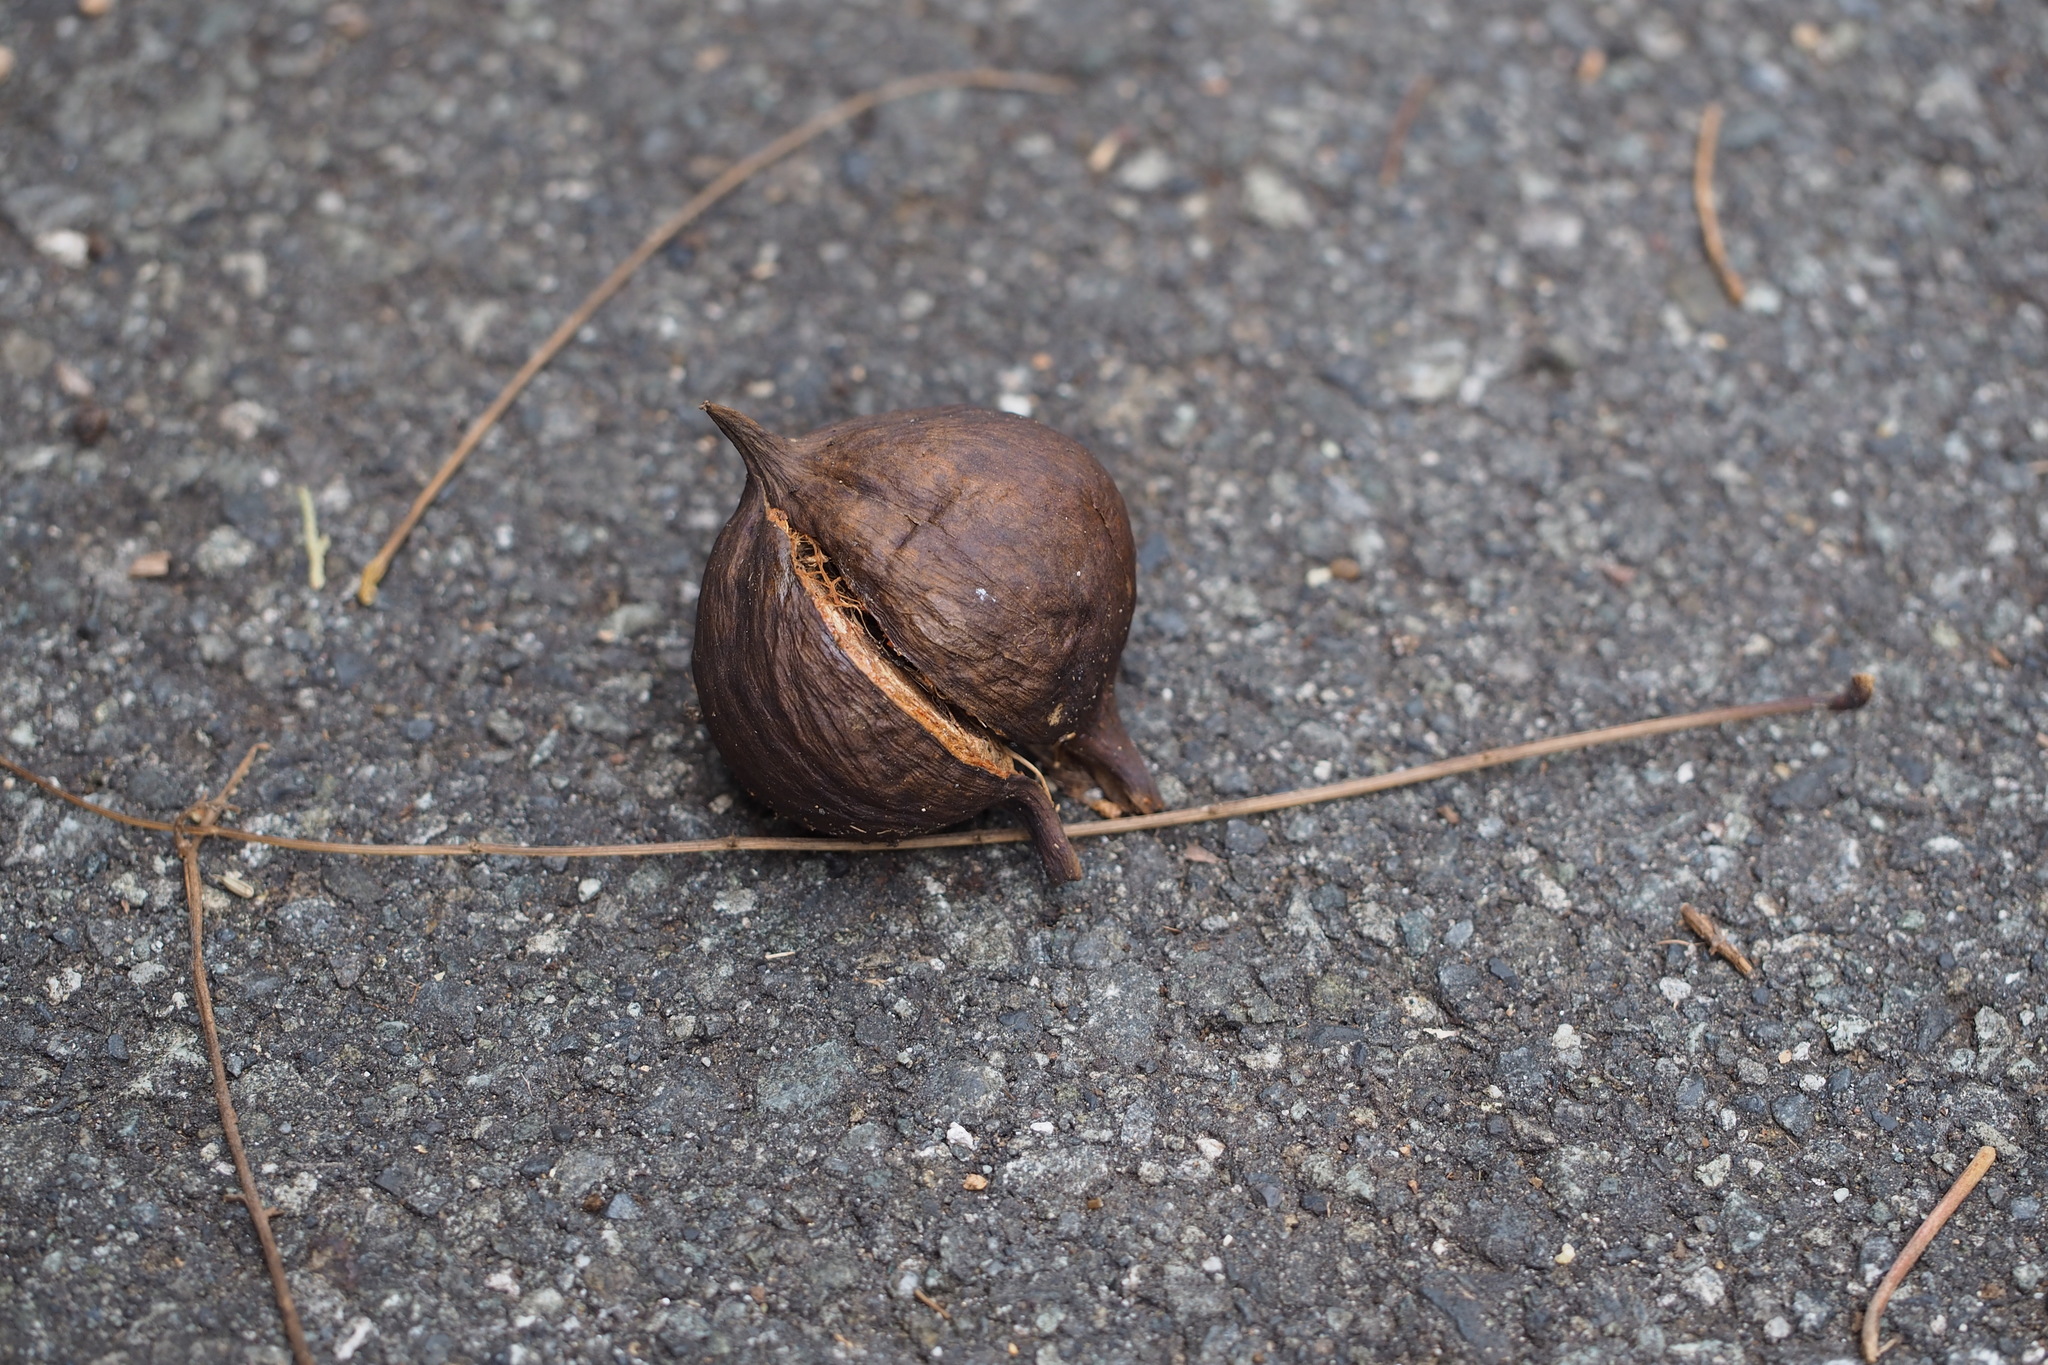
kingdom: Plantae
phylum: Tracheophyta
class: Magnoliopsida
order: Malpighiales
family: Euphorbiaceae
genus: Vernicia
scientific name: Vernicia fordii
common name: Tungoil tree
